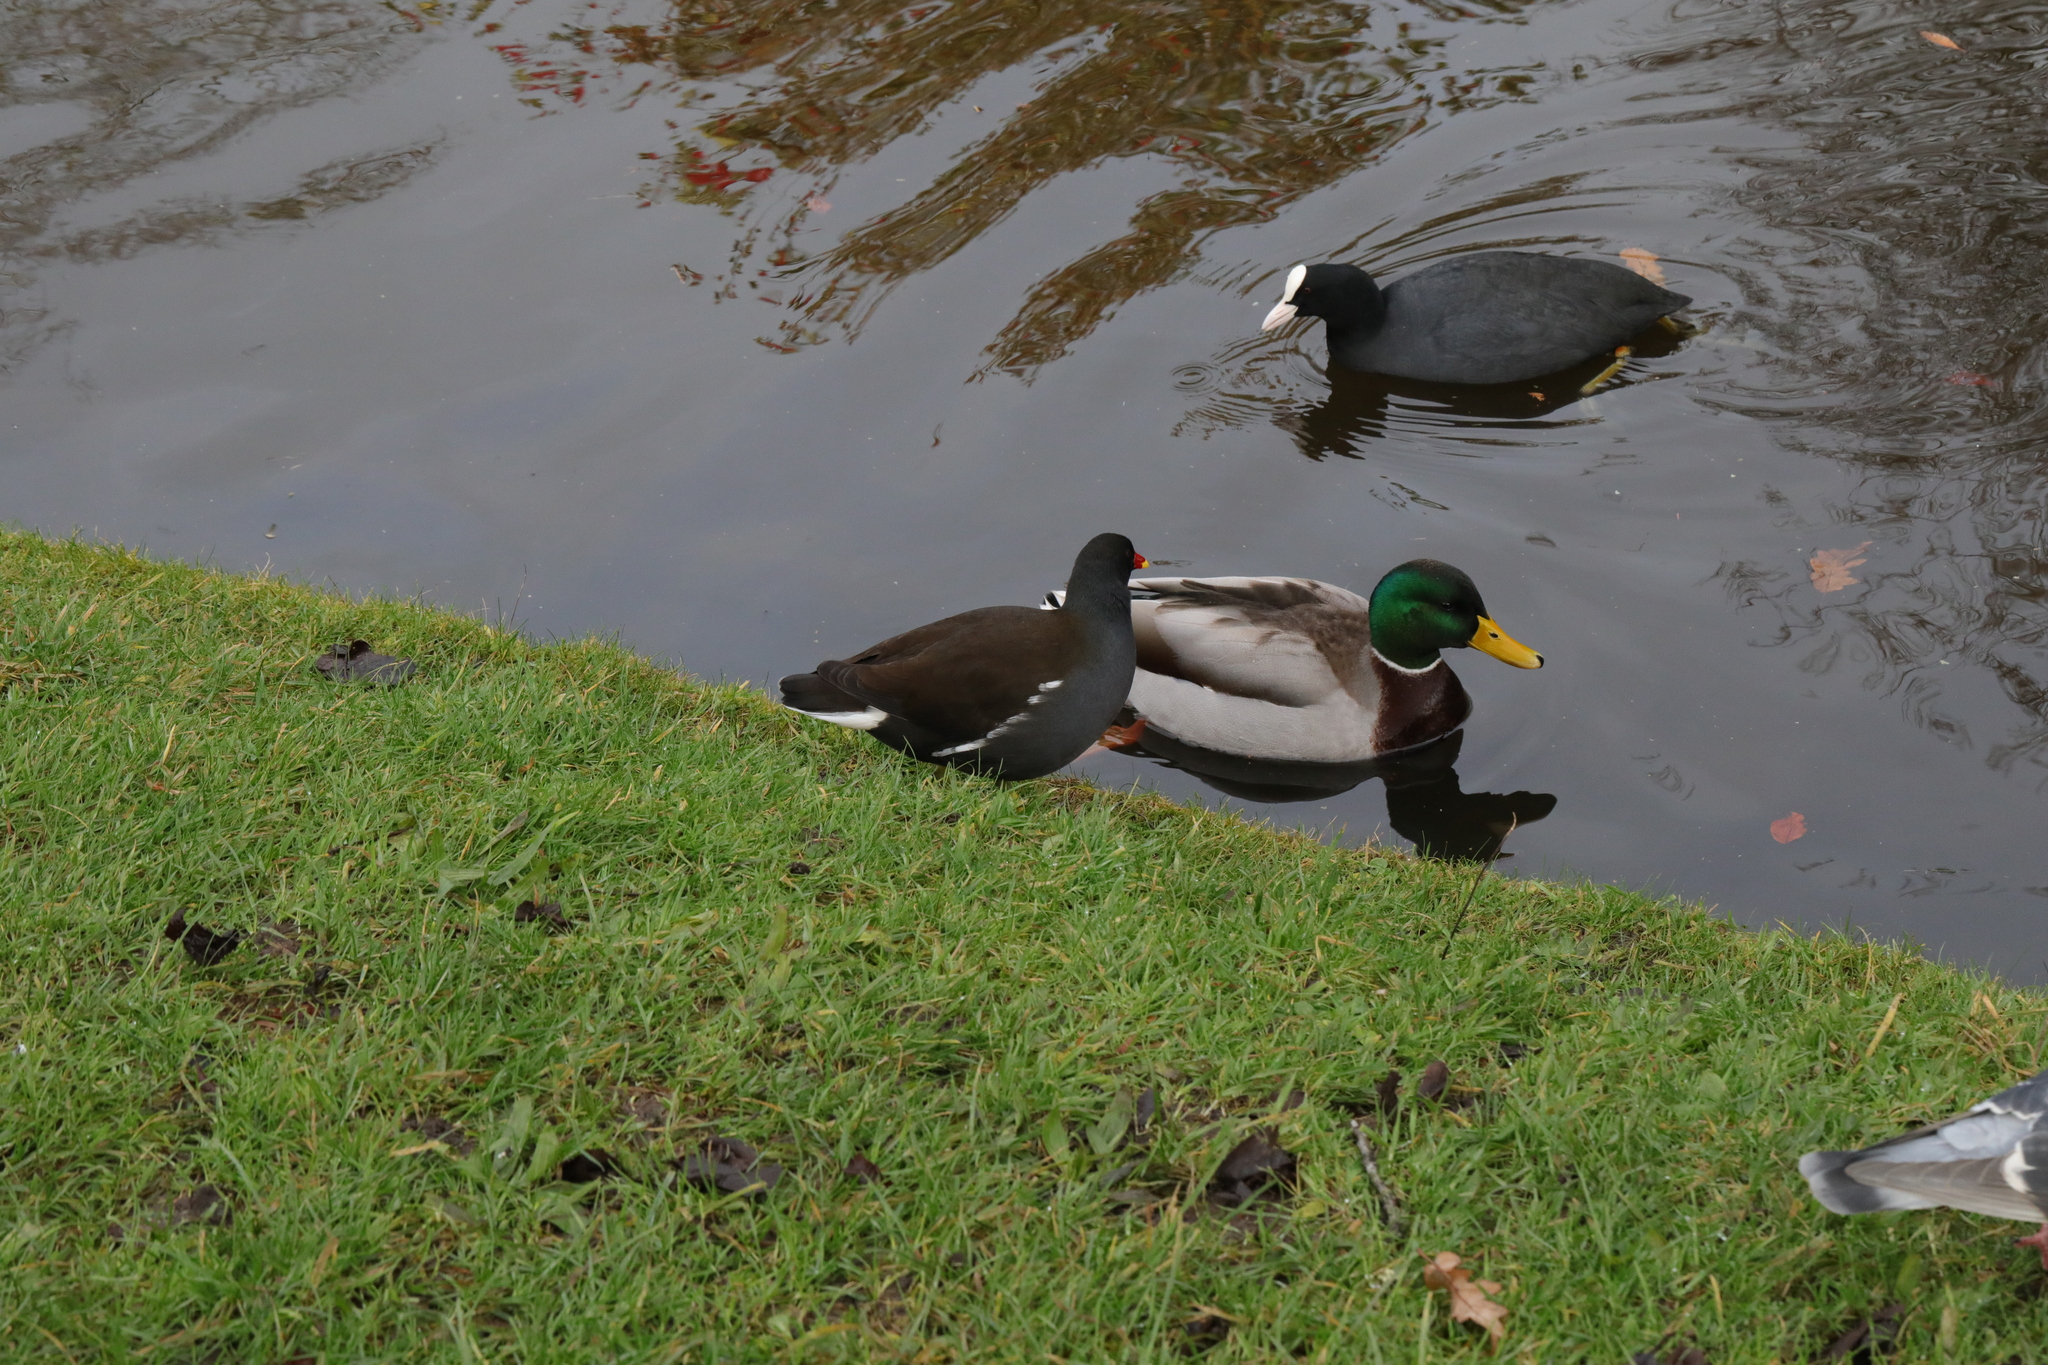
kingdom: Animalia
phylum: Chordata
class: Aves
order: Anseriformes
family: Anatidae
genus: Anas
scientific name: Anas platyrhynchos
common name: Mallard
